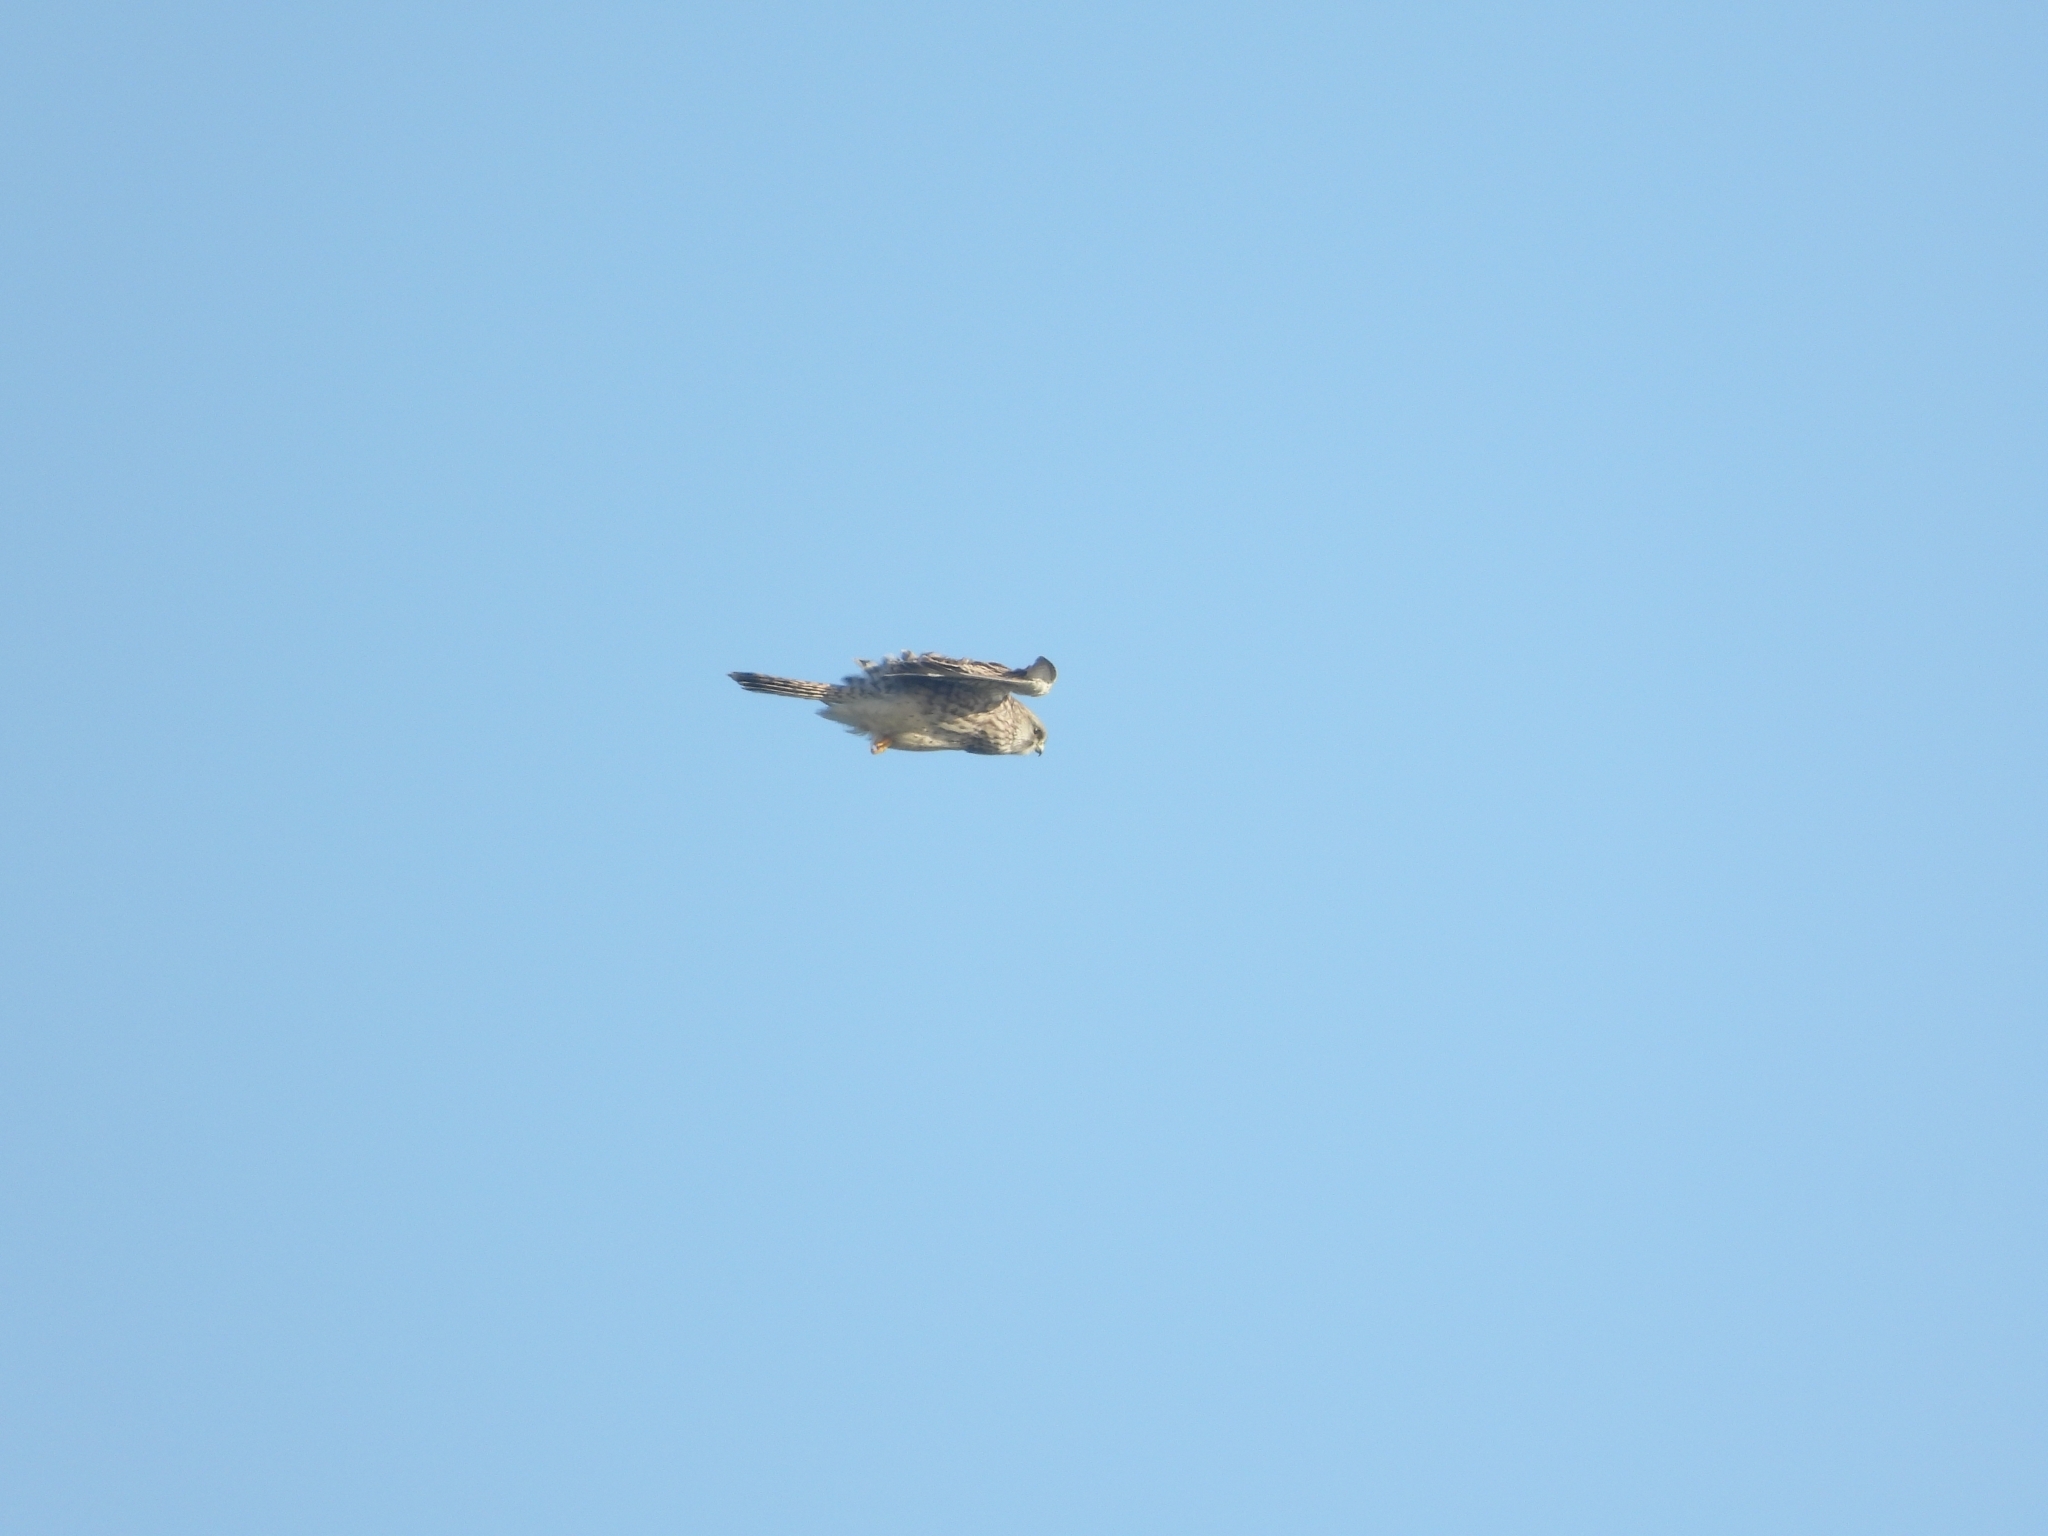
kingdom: Animalia
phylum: Chordata
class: Aves
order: Falconiformes
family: Falconidae
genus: Falco
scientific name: Falco tinnunculus
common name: Common kestrel
